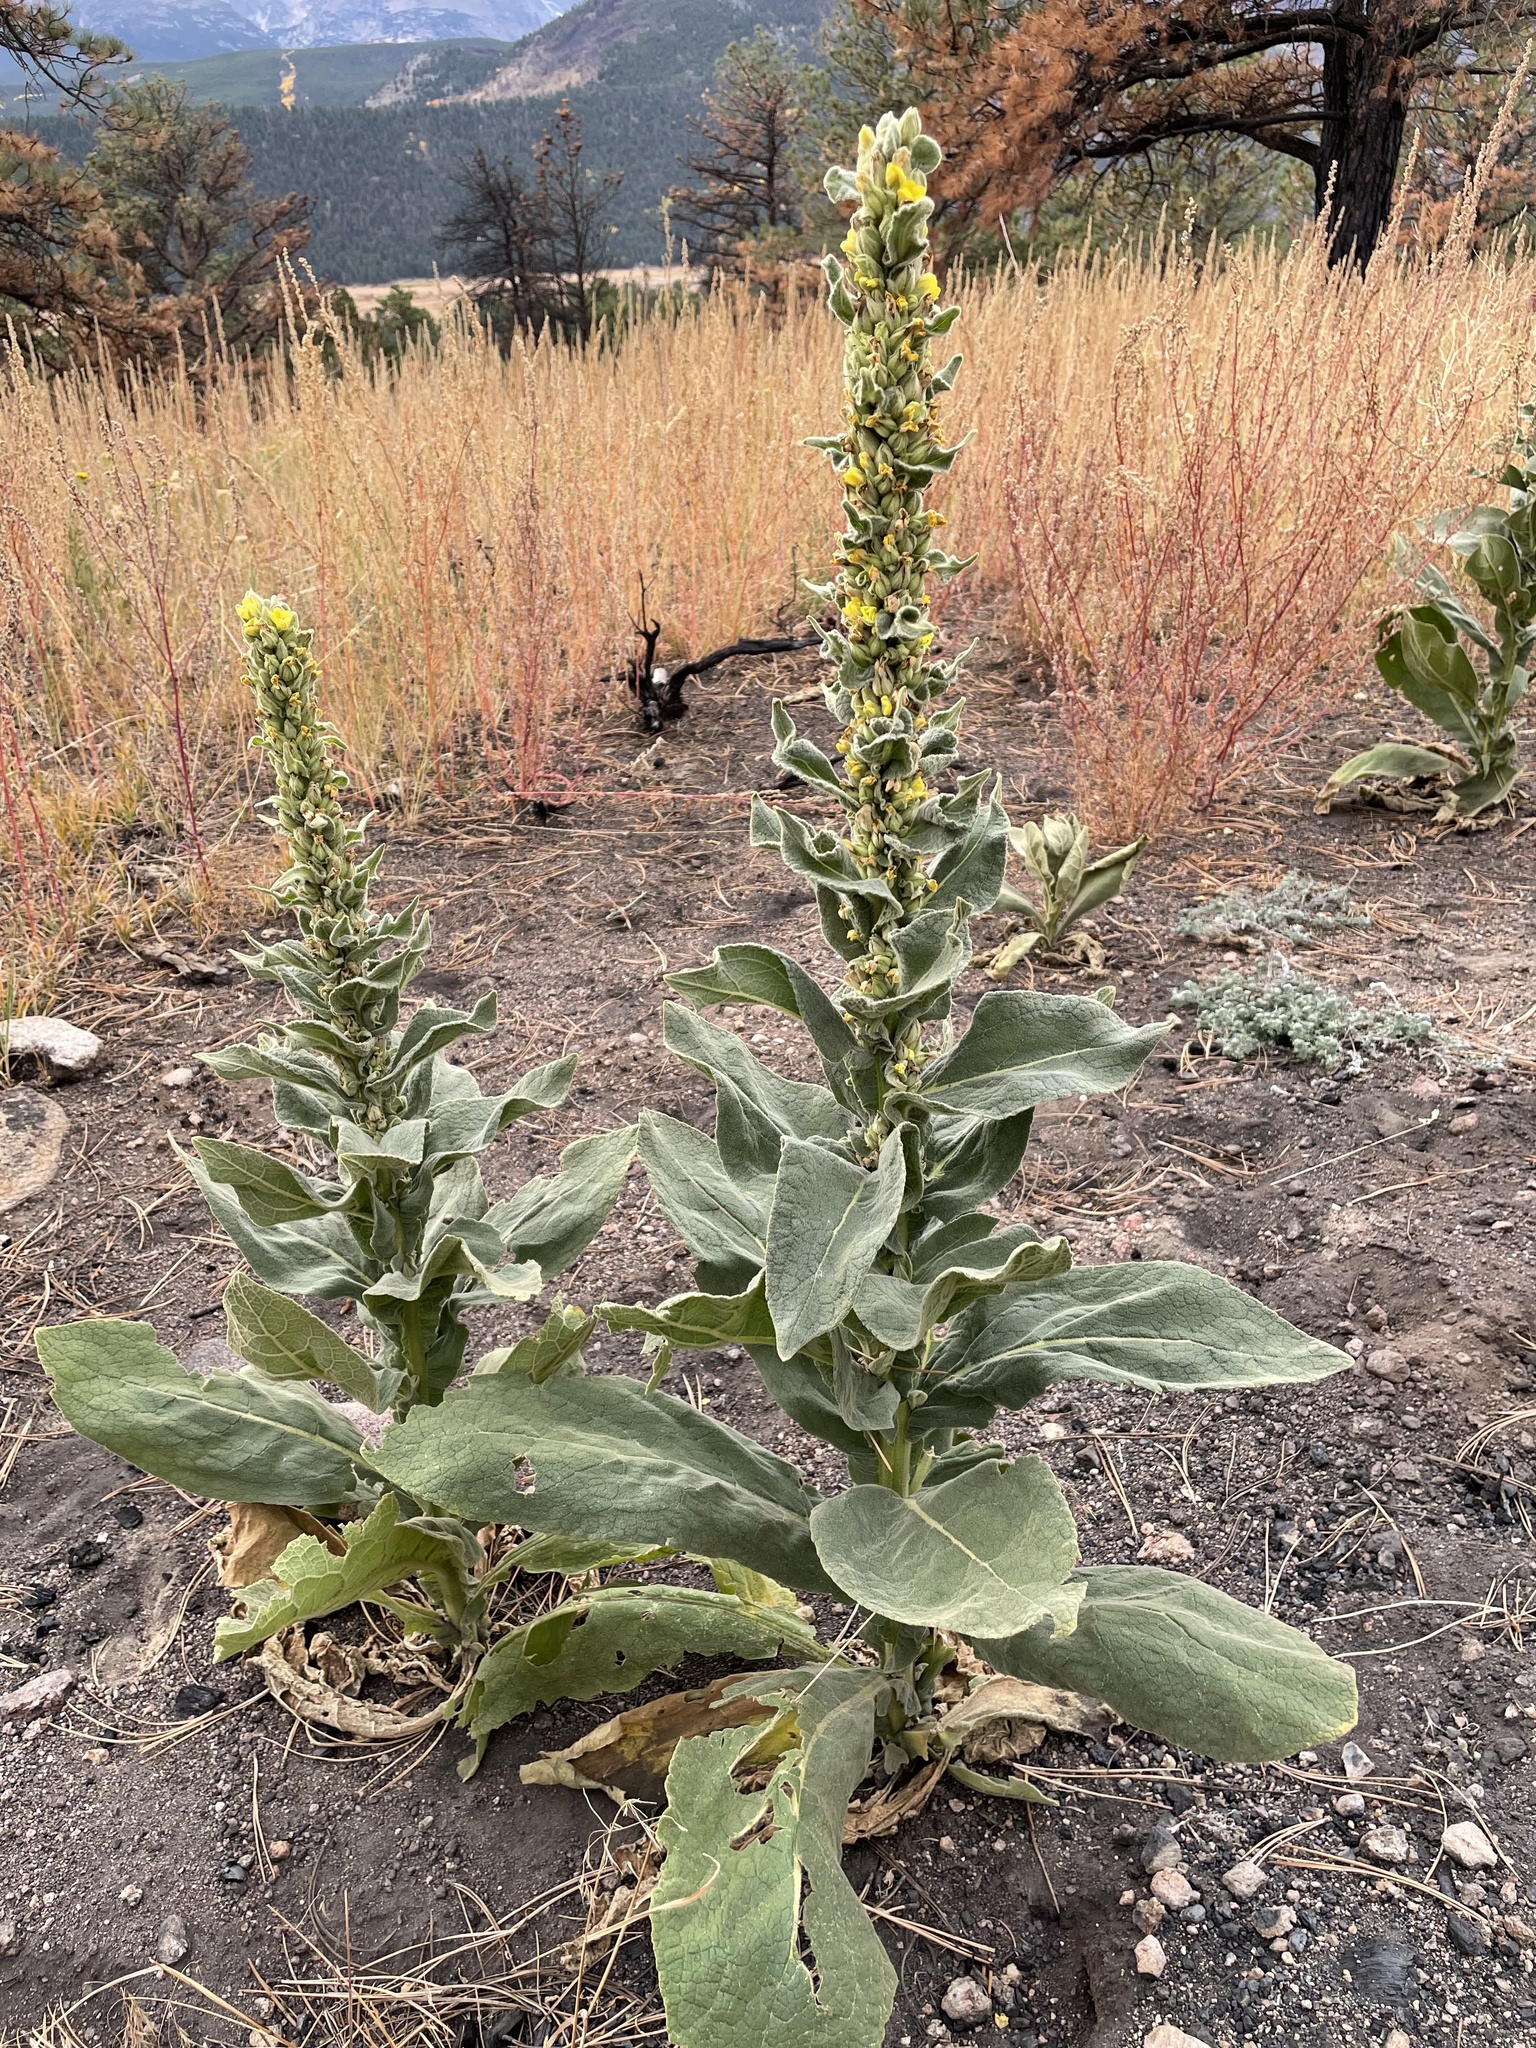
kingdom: Plantae
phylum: Tracheophyta
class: Magnoliopsida
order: Lamiales
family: Scrophulariaceae
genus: Verbascum
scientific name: Verbascum thapsus
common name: Common mullein
